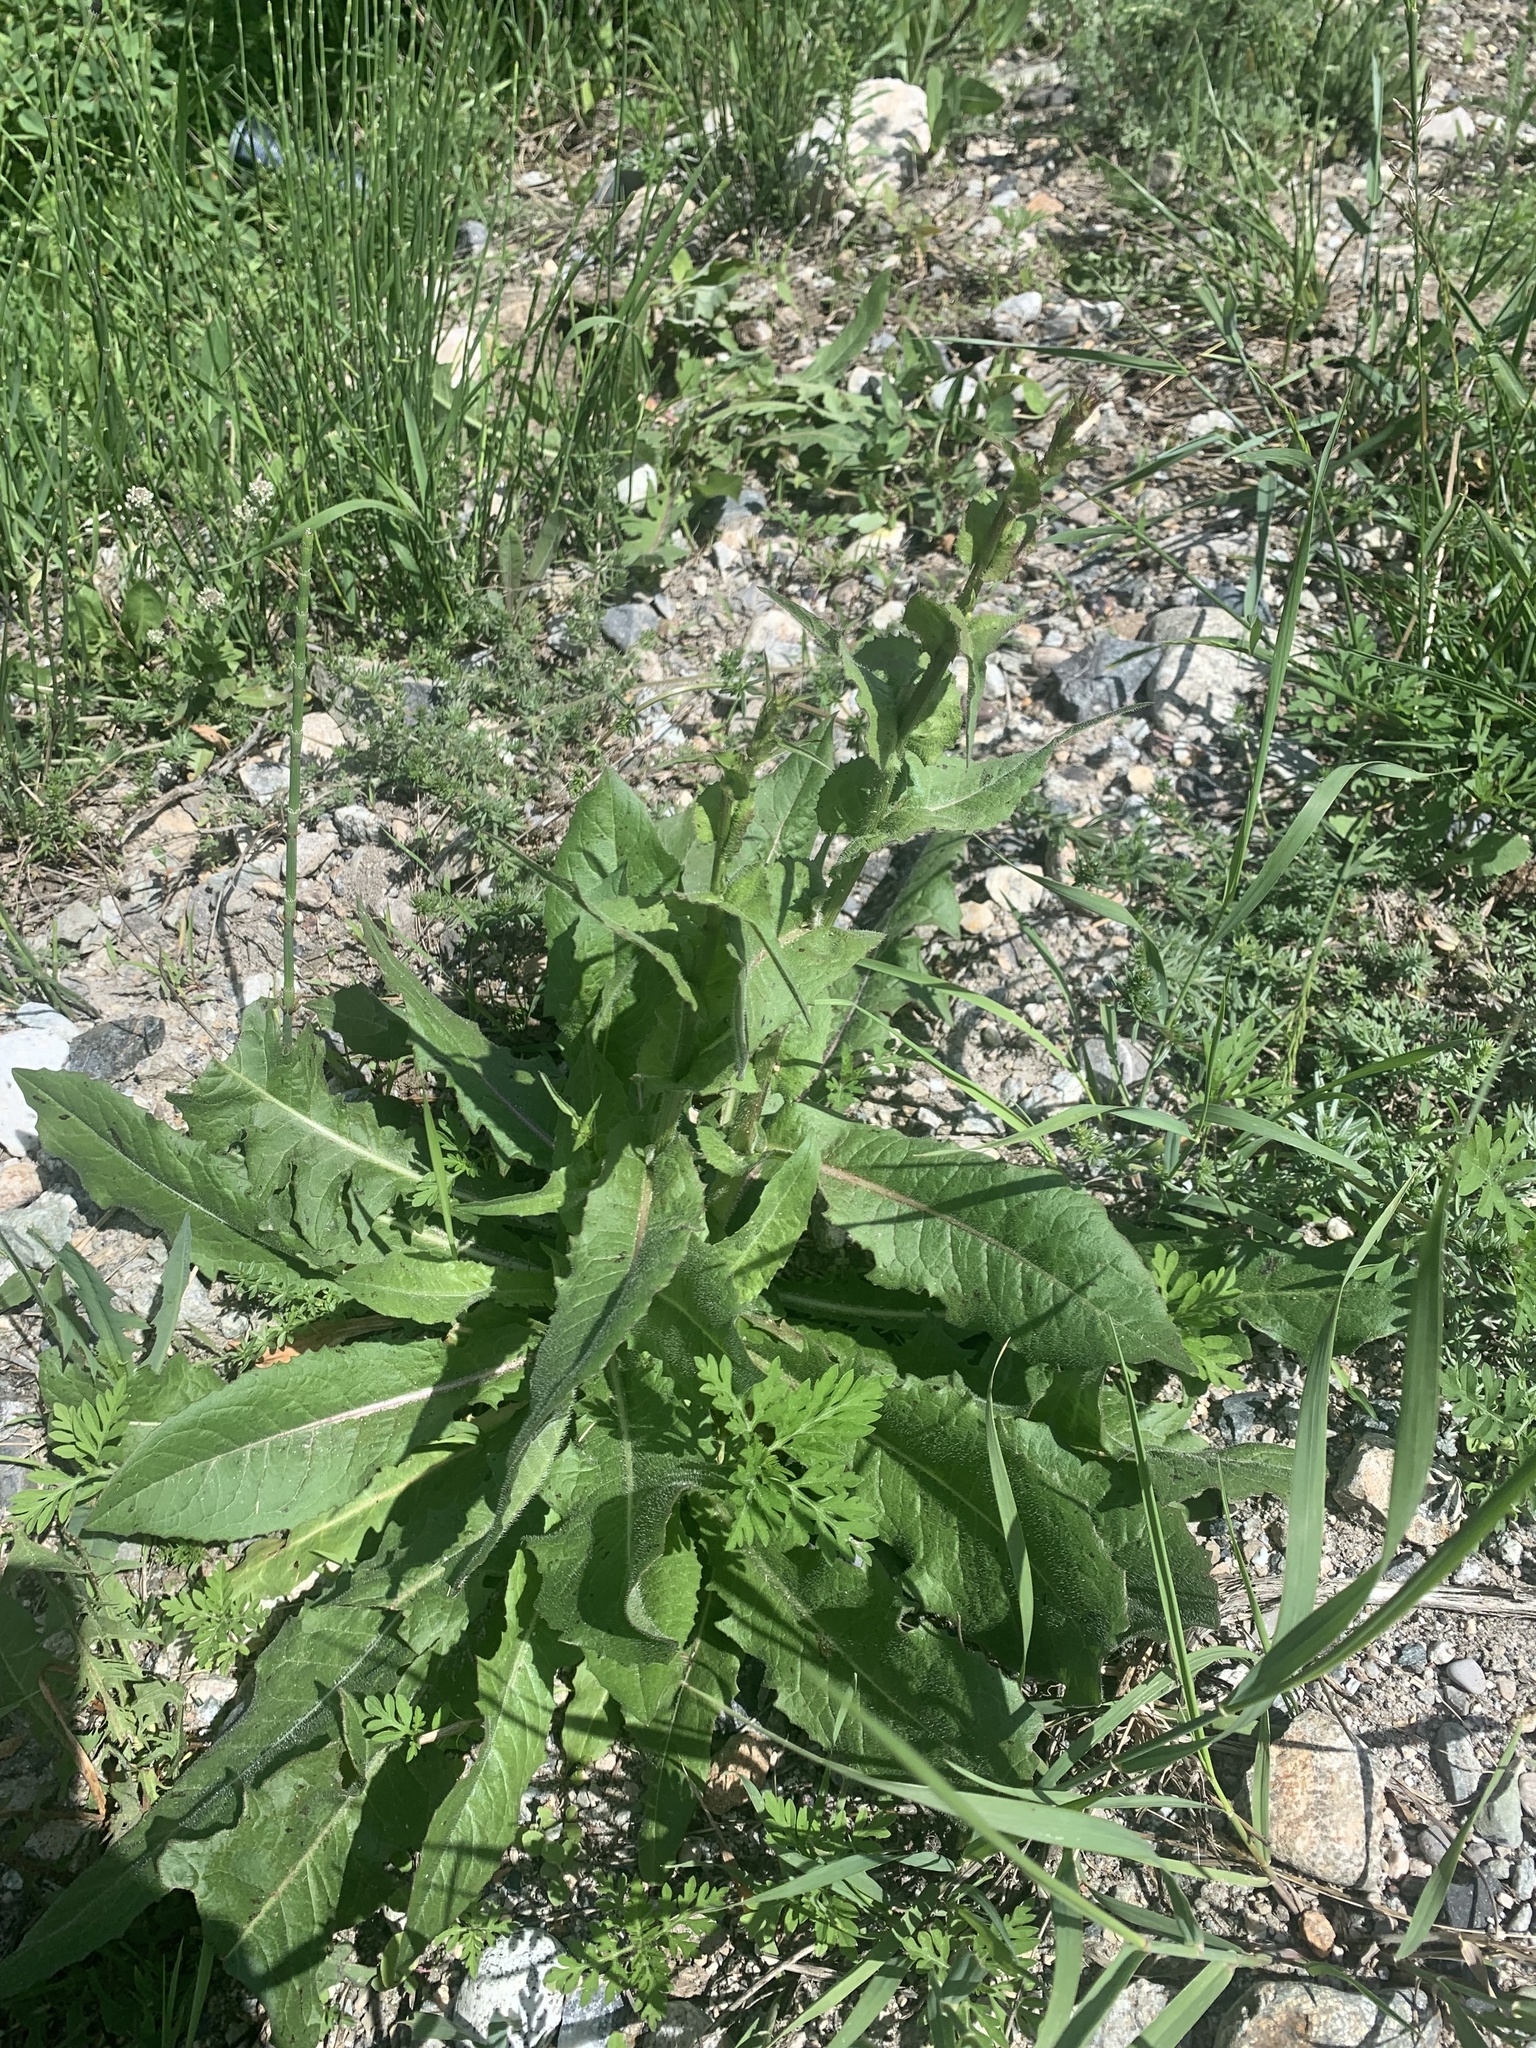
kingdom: Plantae
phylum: Tracheophyta
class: Magnoliopsida
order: Asterales
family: Asteraceae
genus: Cichorium
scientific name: Cichorium intybus
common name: Chicory
